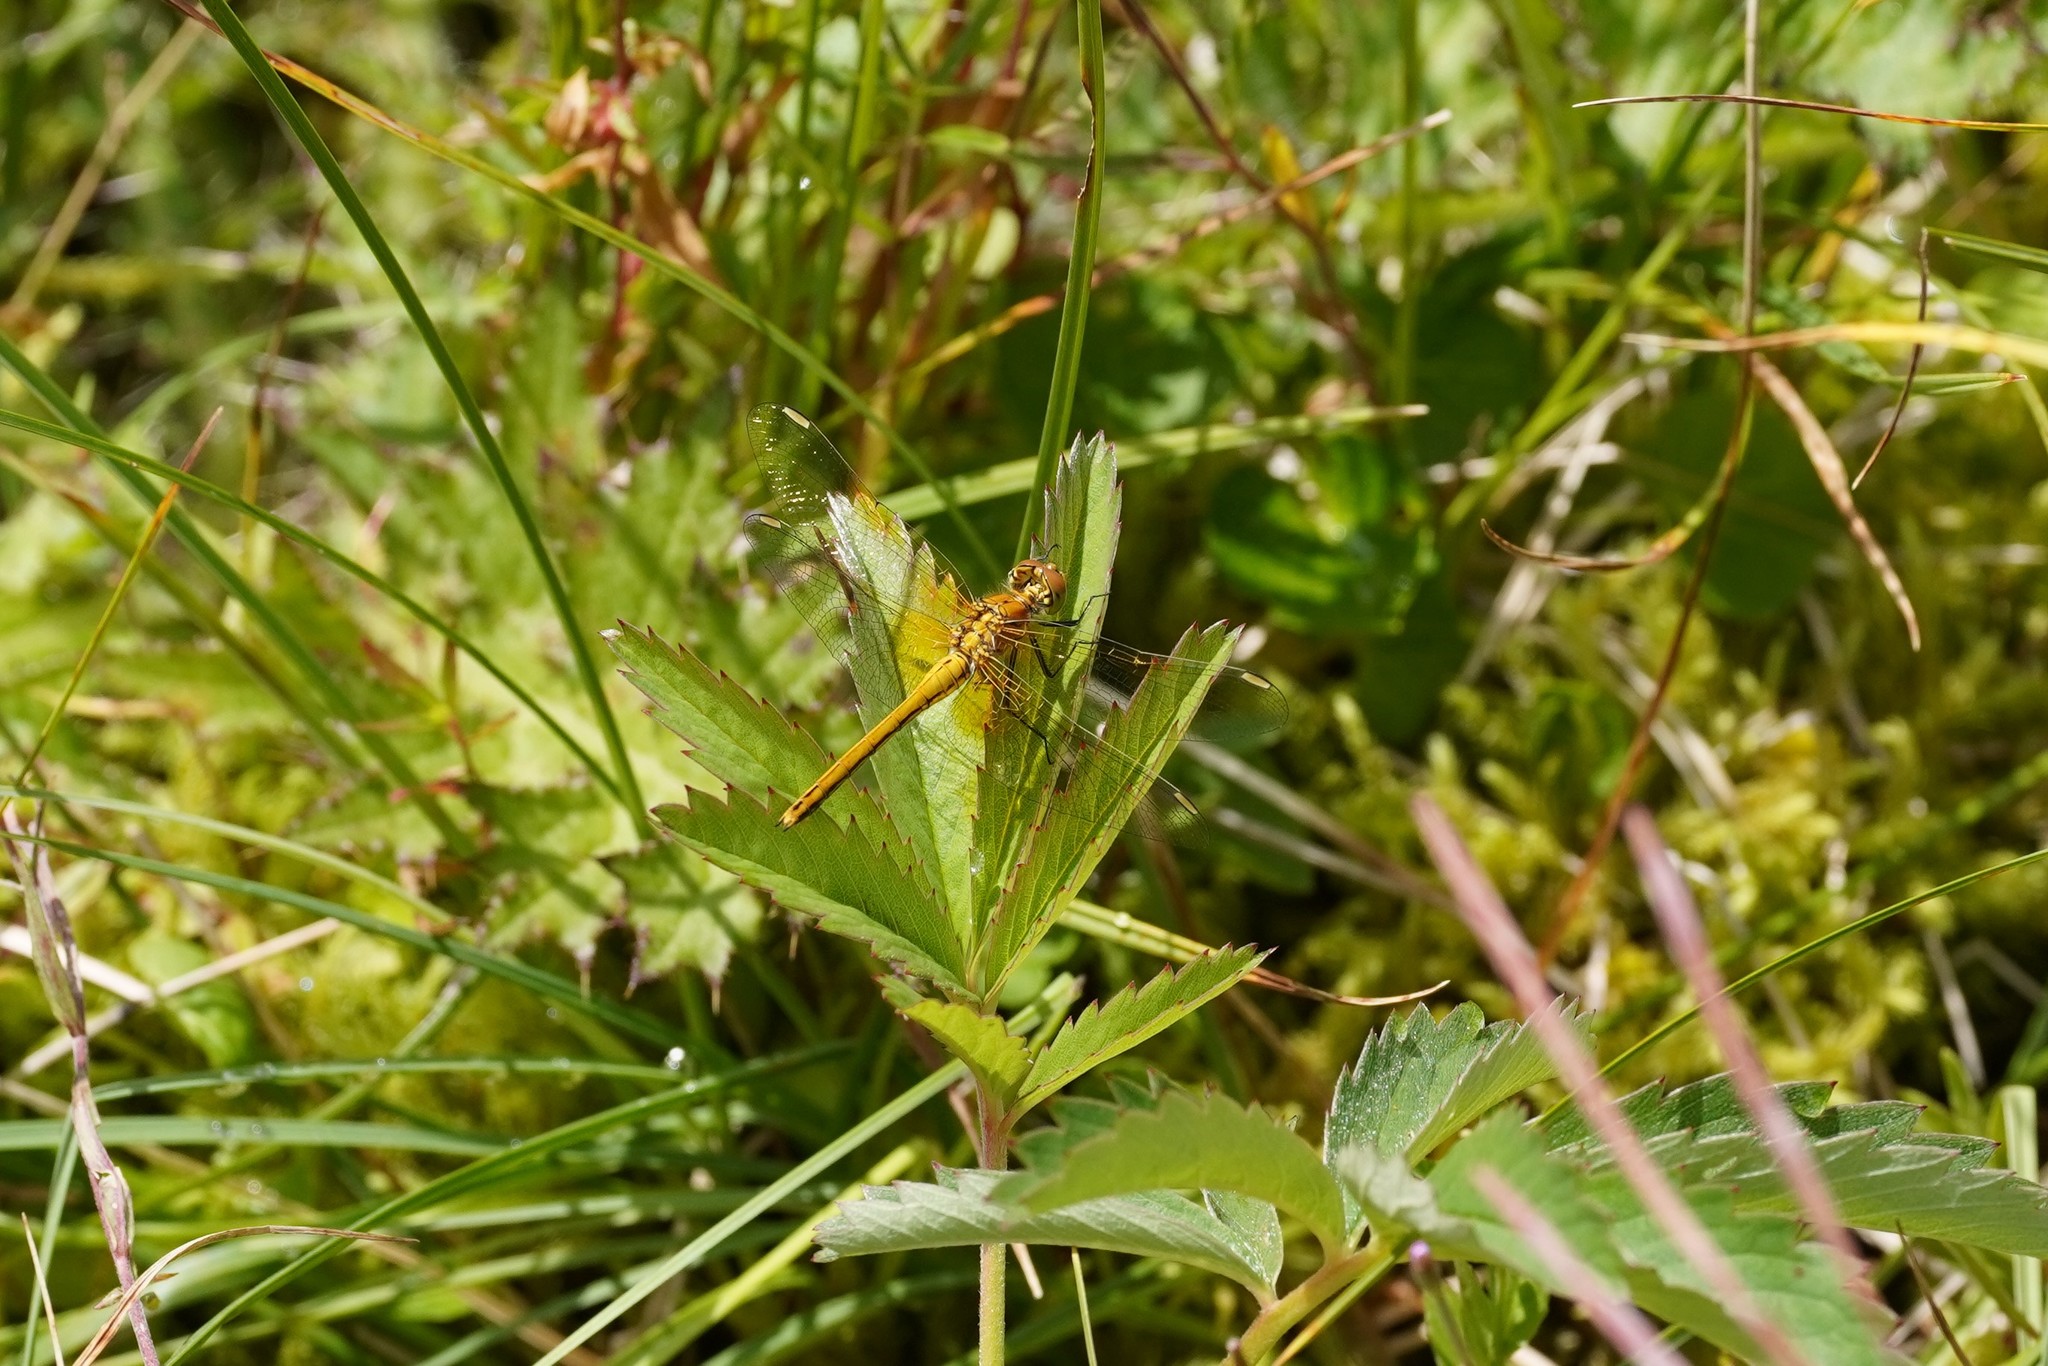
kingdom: Animalia
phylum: Arthropoda
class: Insecta
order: Odonata
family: Libellulidae
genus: Sympetrum
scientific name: Sympetrum flaveolum
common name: Yellow-winged darter
